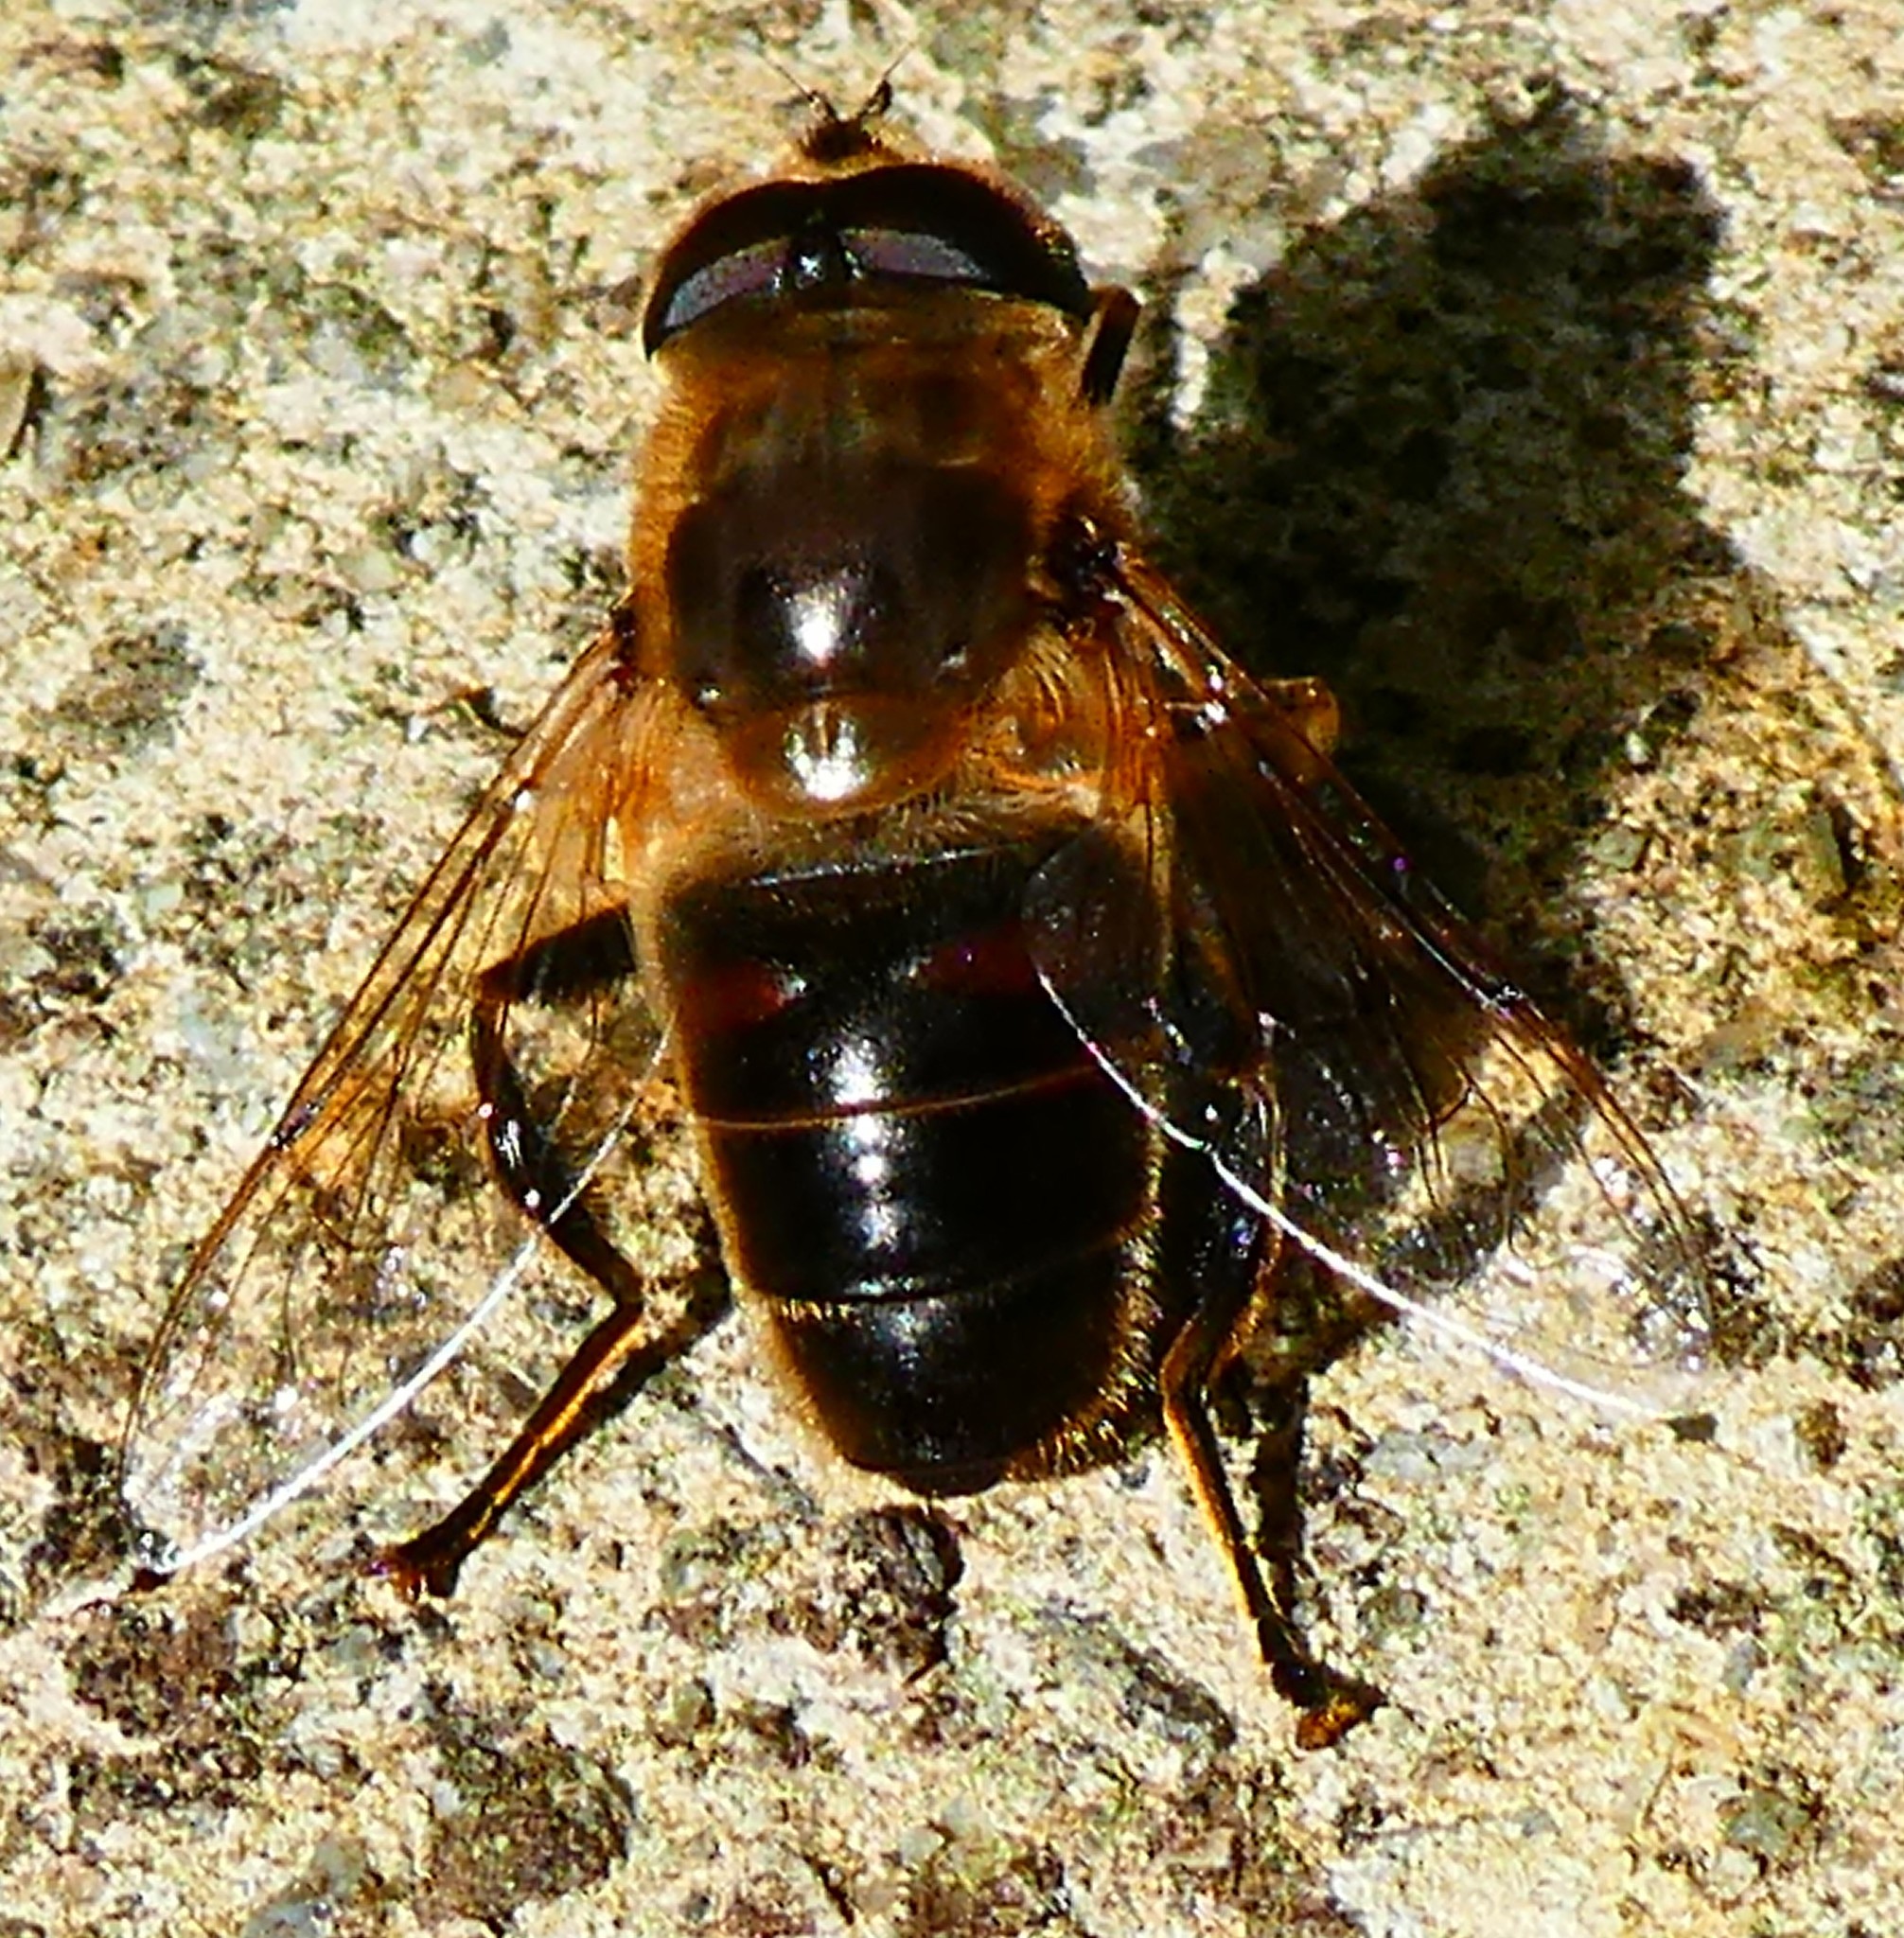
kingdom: Animalia
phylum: Arthropoda
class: Insecta
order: Diptera
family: Syrphidae
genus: Eristalis
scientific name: Eristalis tenax
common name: Drone fly
